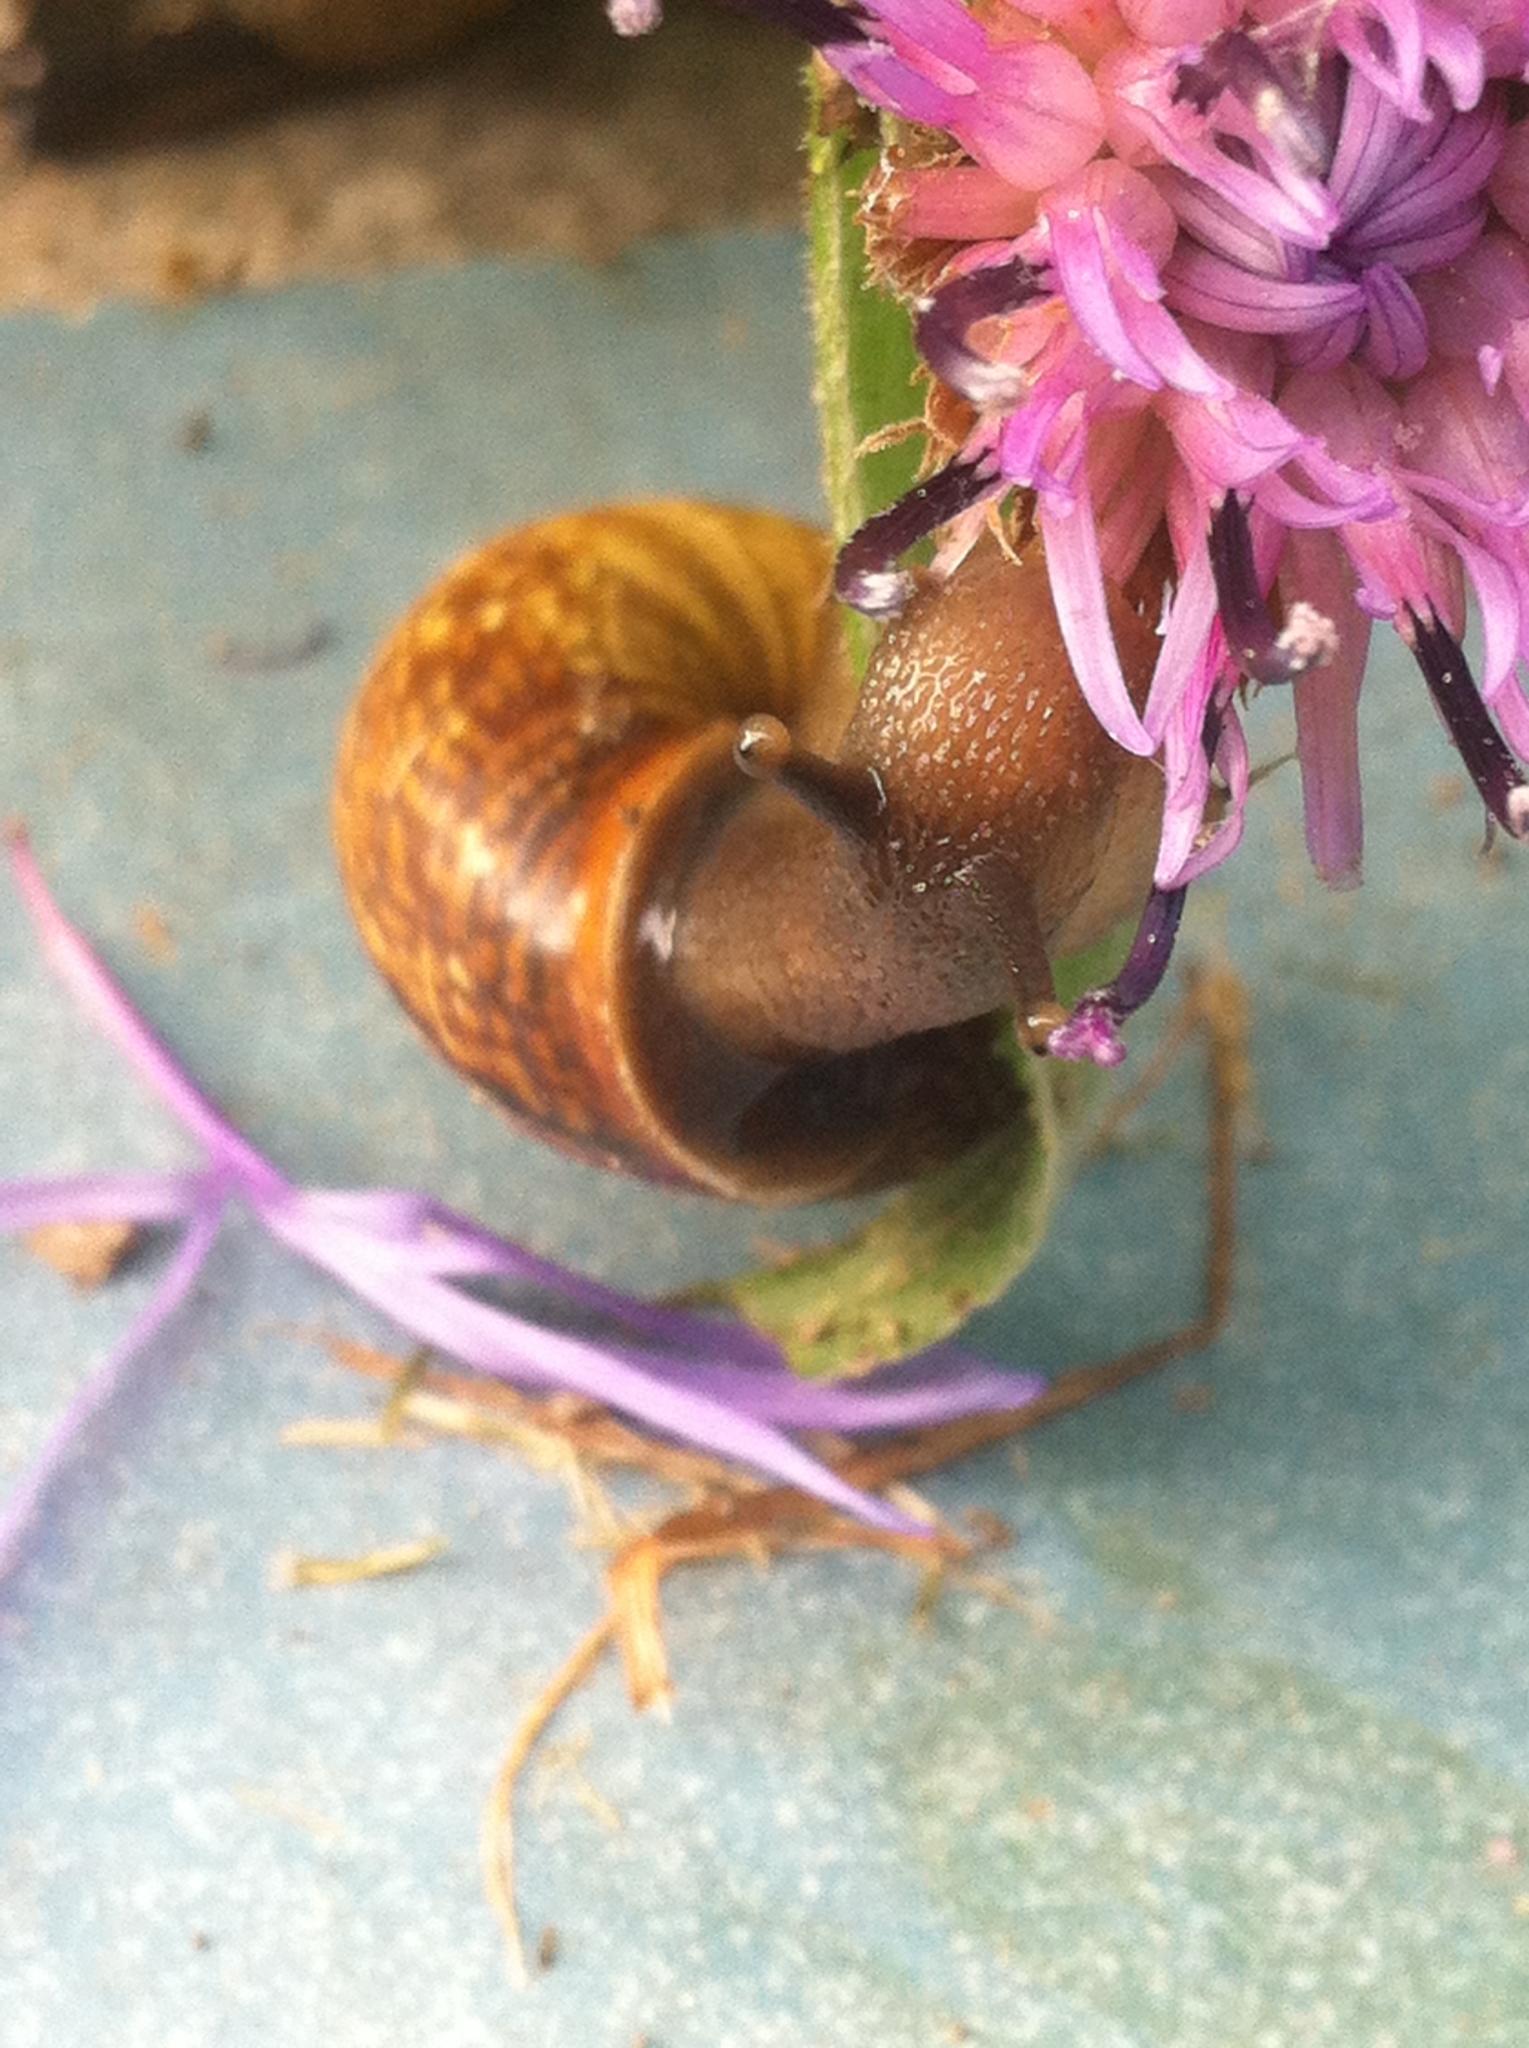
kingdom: Animalia
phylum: Mollusca
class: Gastropoda
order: Stylommatophora
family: Helicidae
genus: Arianta
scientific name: Arianta arbustorum
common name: Copse snail
